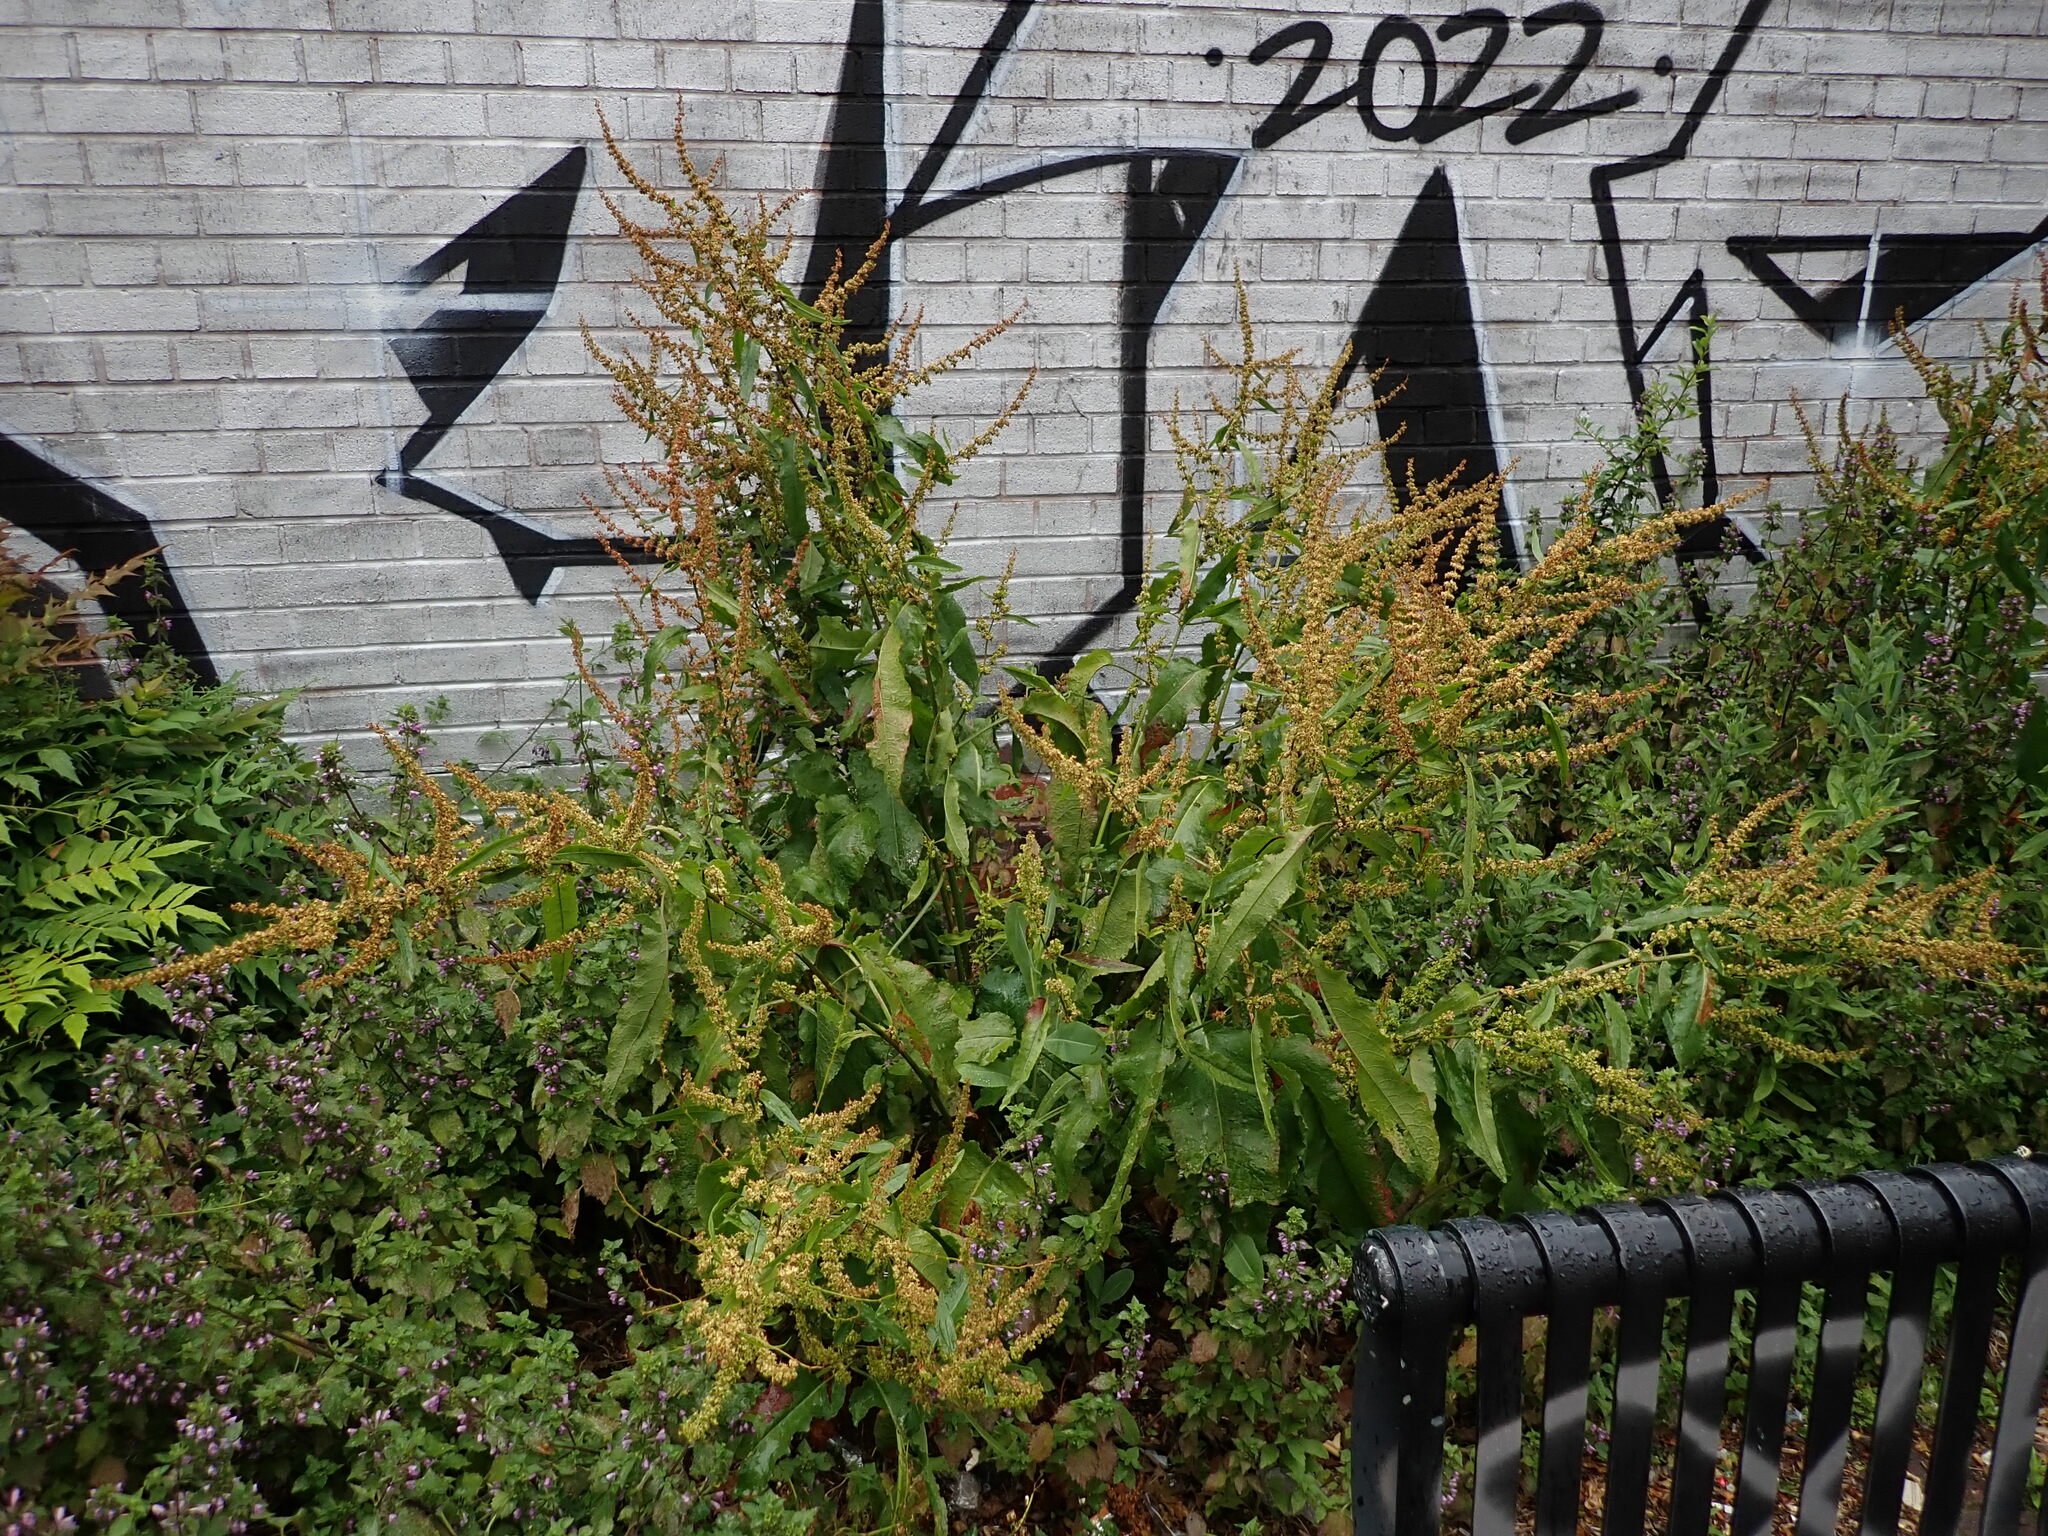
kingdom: Plantae
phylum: Tracheophyta
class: Magnoliopsida
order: Caryophyllales
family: Polygonaceae
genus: Rumex
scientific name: Rumex obtusifolius
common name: Bitter dock
